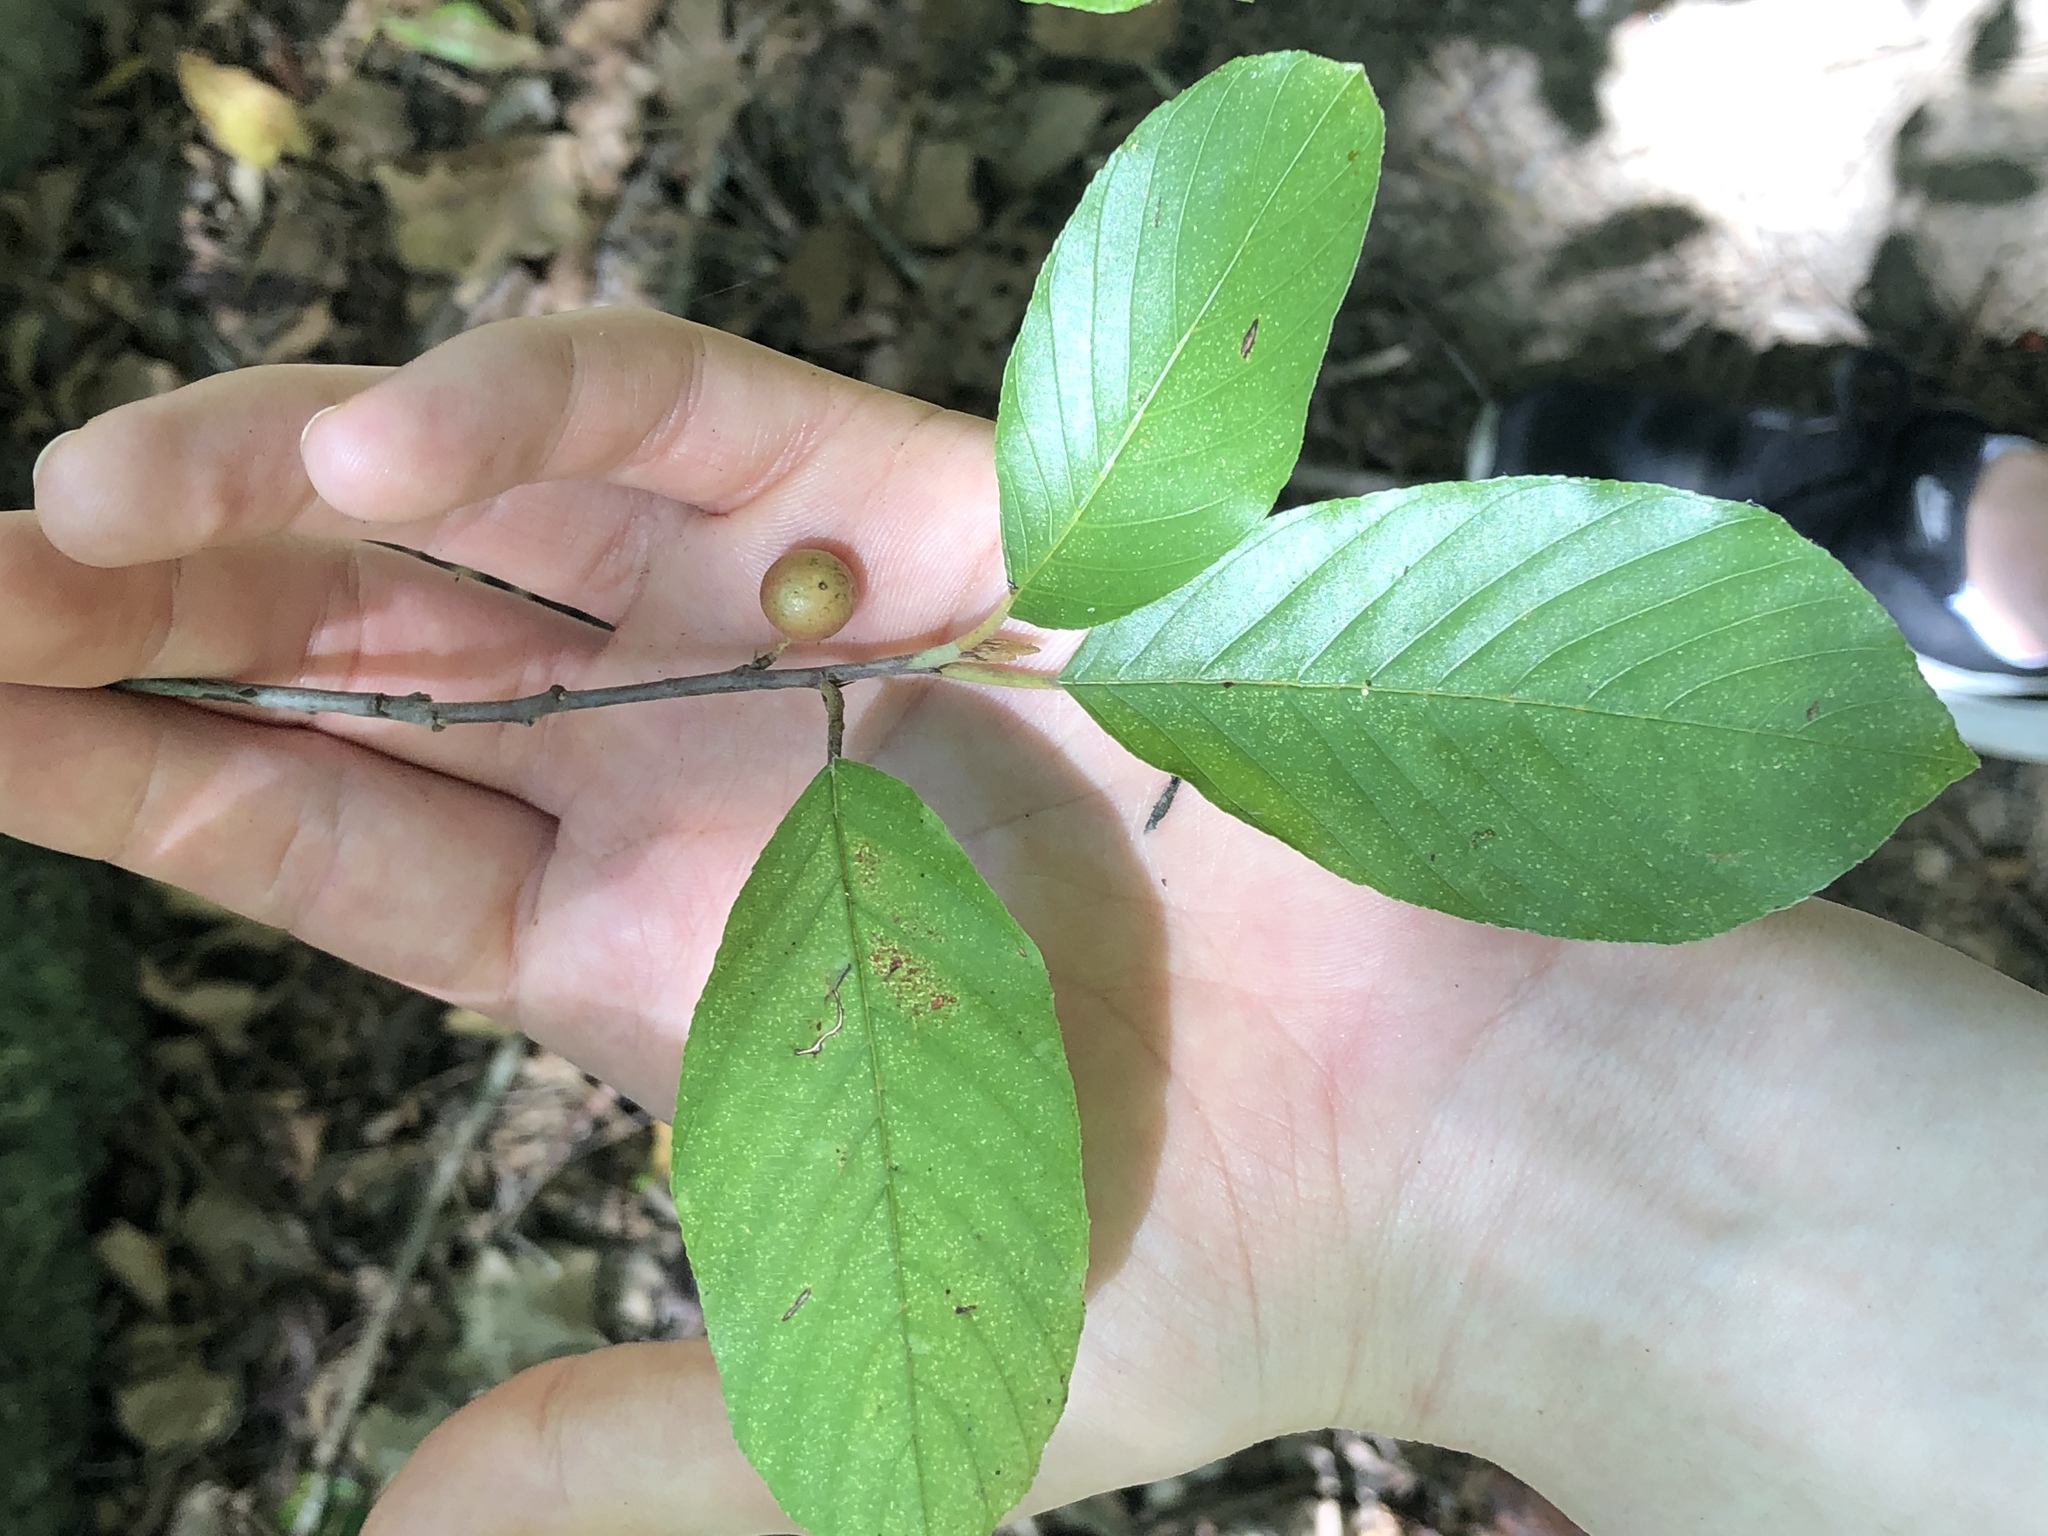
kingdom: Plantae
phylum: Tracheophyta
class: Magnoliopsida
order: Rosales
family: Rhamnaceae
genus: Frangula
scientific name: Frangula caroliniana
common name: Carolina buckthorn
